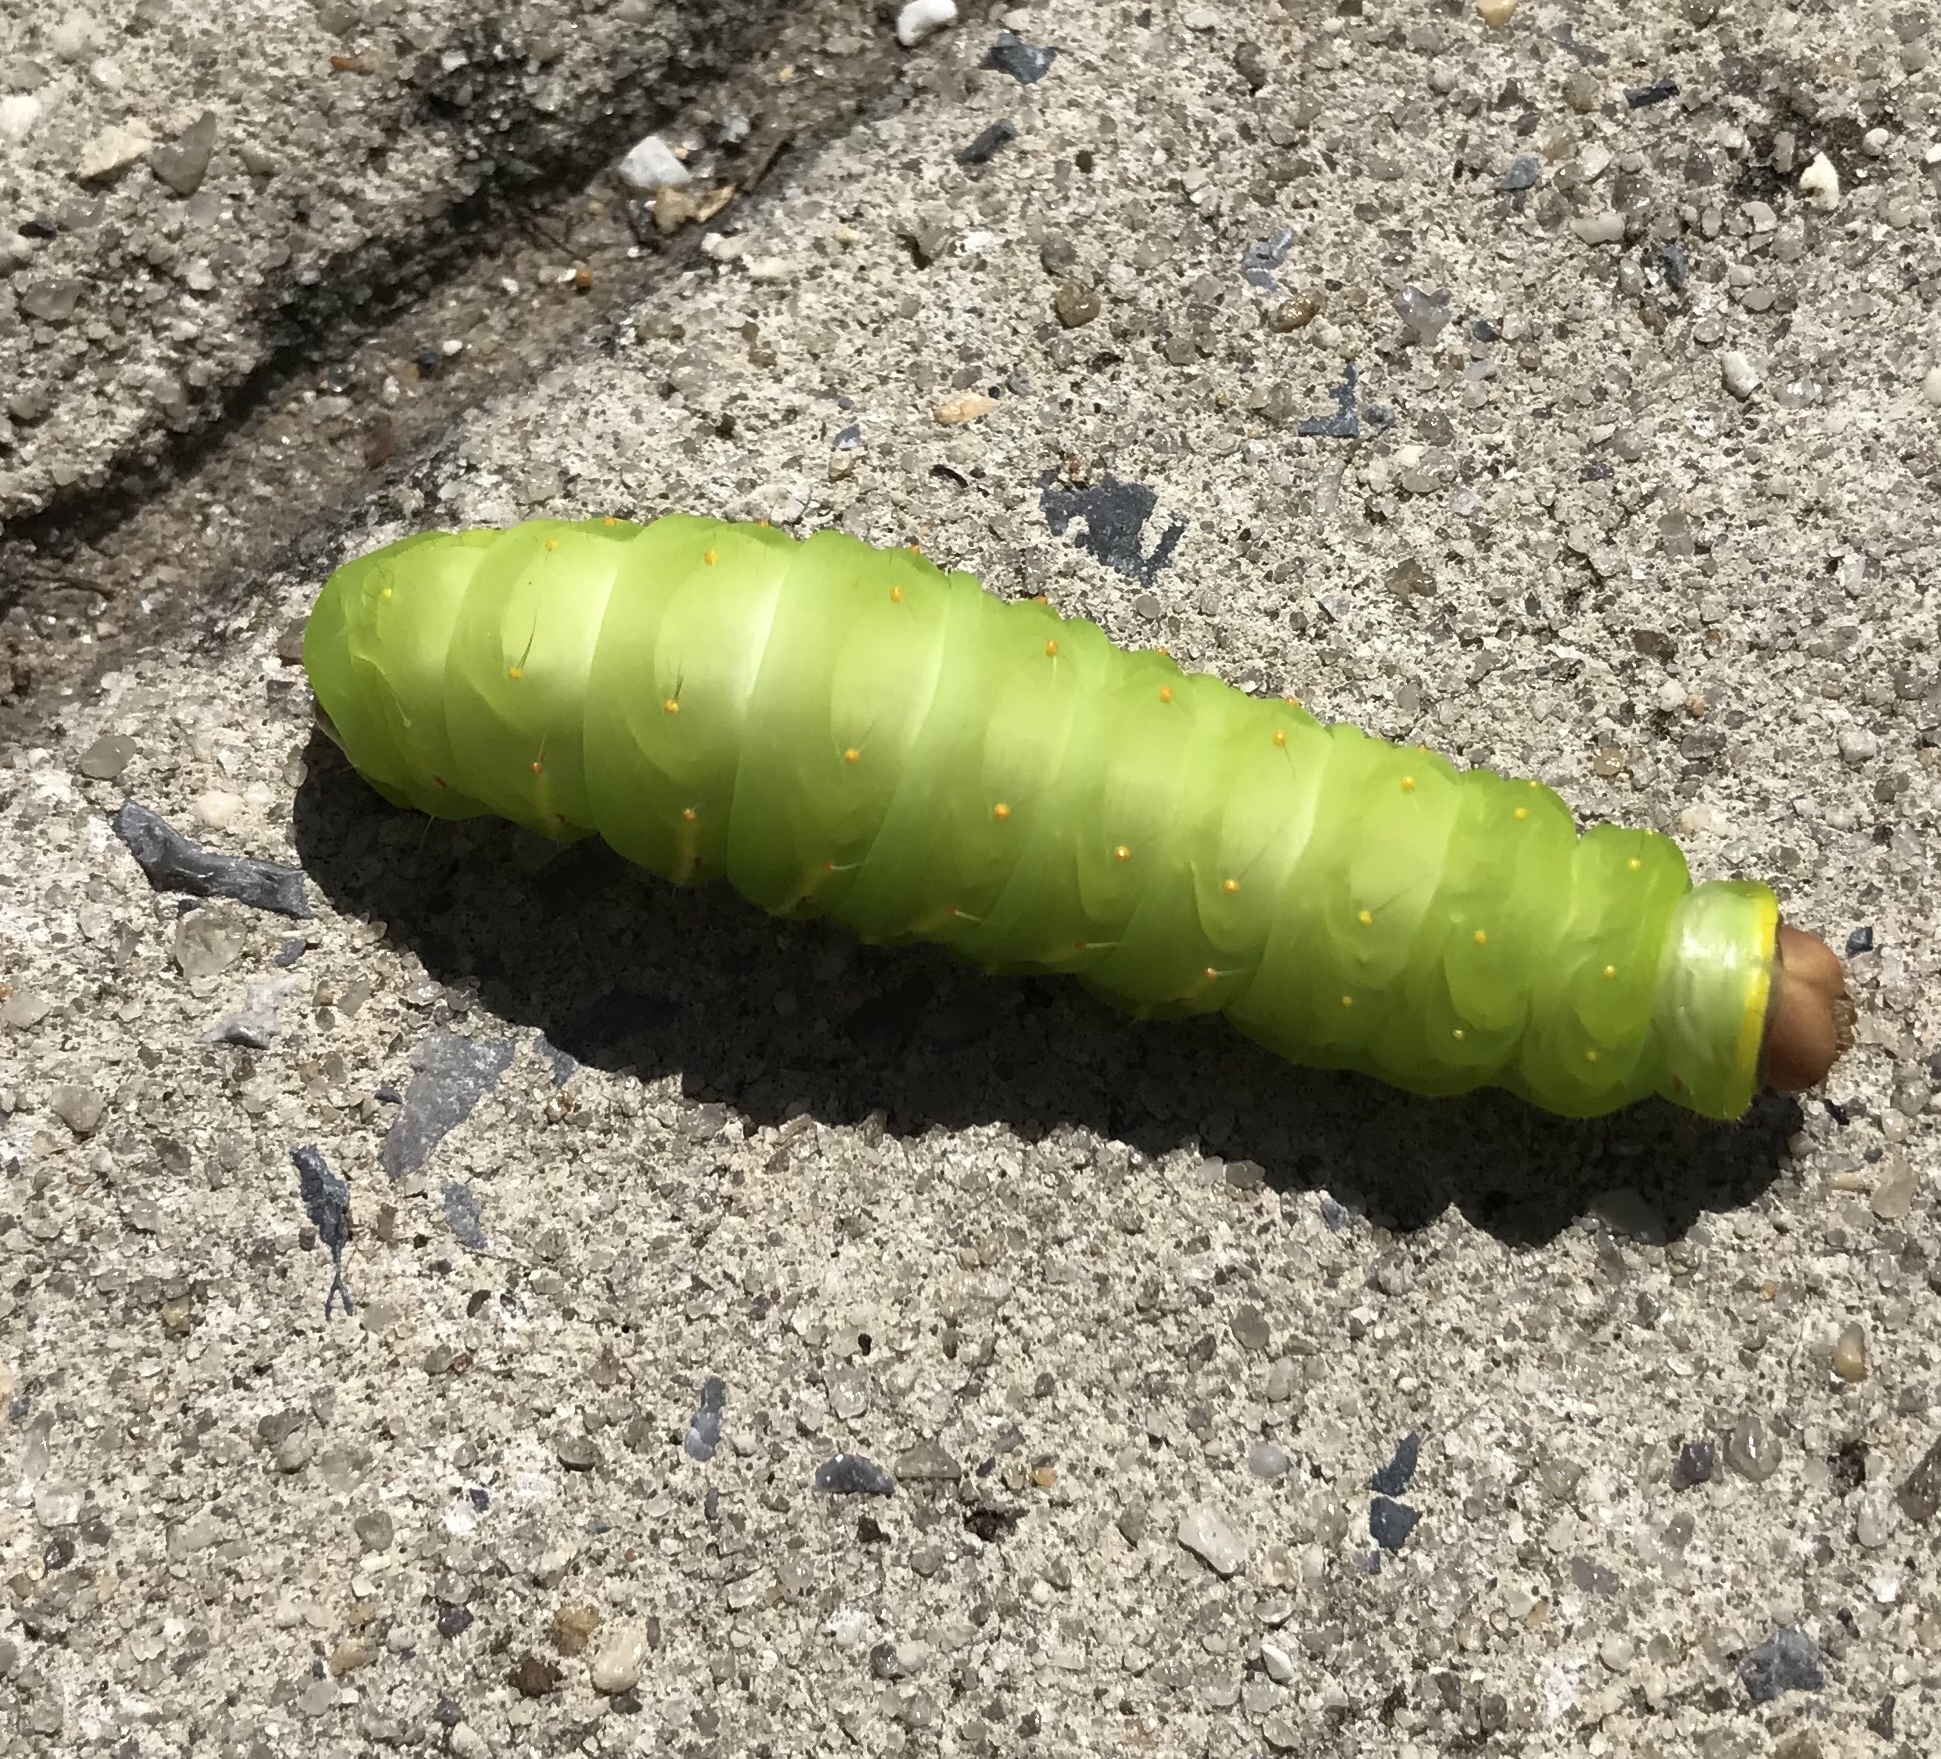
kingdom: Animalia
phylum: Arthropoda
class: Insecta
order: Lepidoptera
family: Saturniidae
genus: Antheraea
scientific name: Antheraea polyphemus
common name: Polyphemus moth
